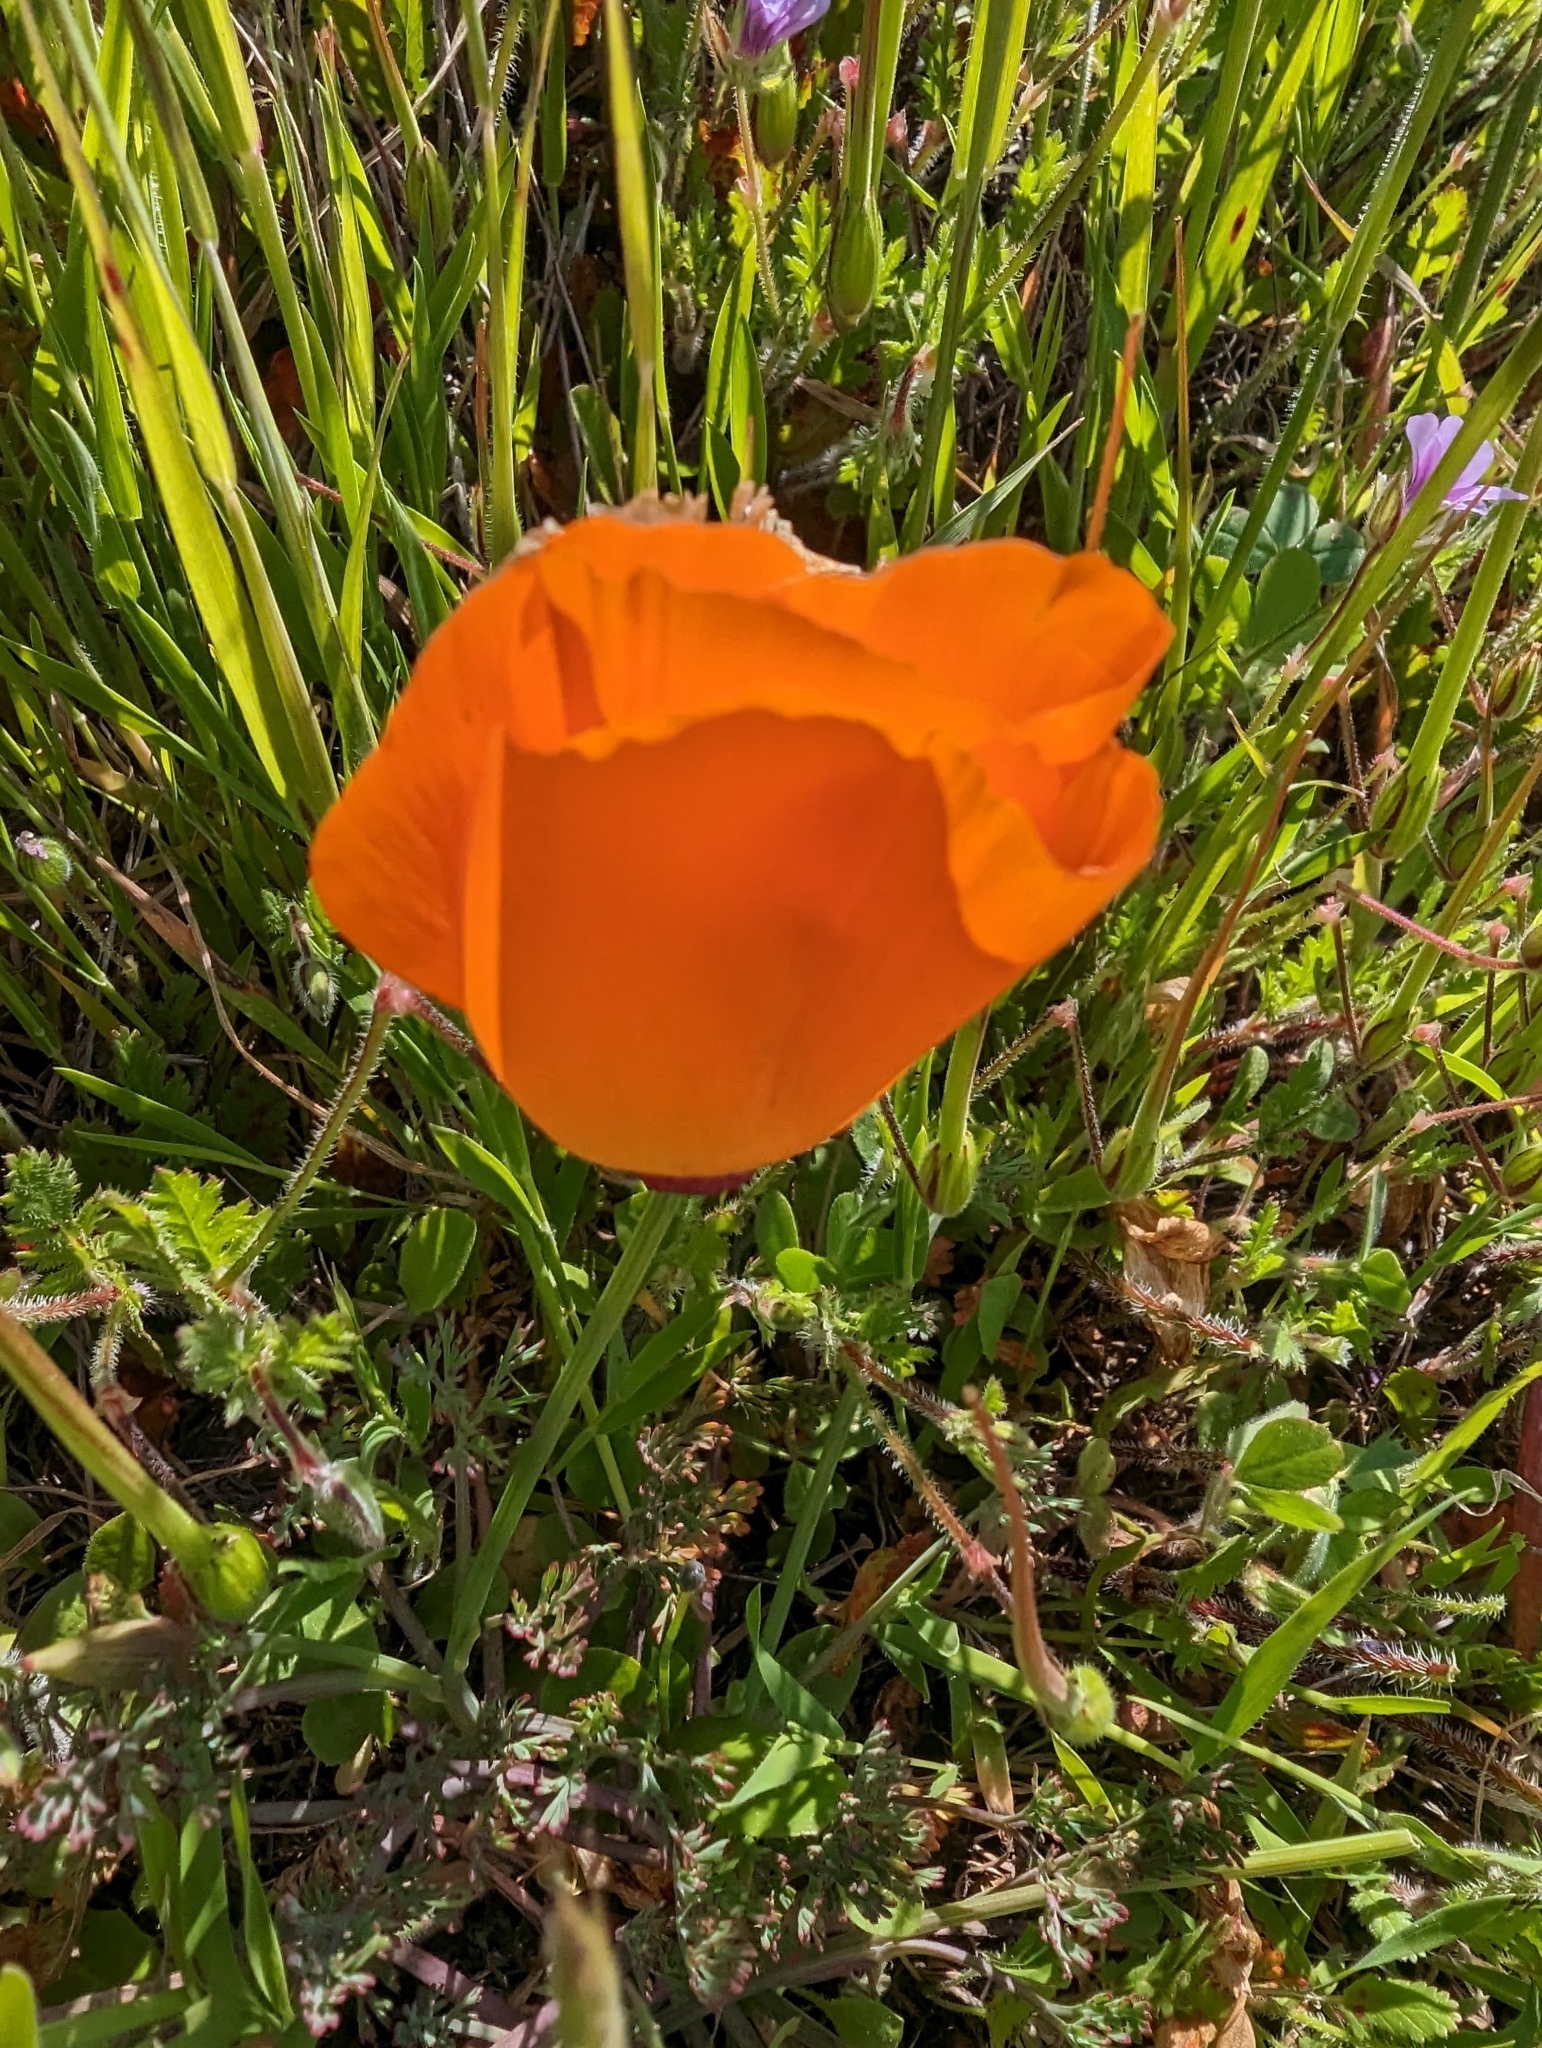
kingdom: Plantae
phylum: Tracheophyta
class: Magnoliopsida
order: Ranunculales
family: Papaveraceae
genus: Eschscholzia
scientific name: Eschscholzia californica
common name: California poppy
